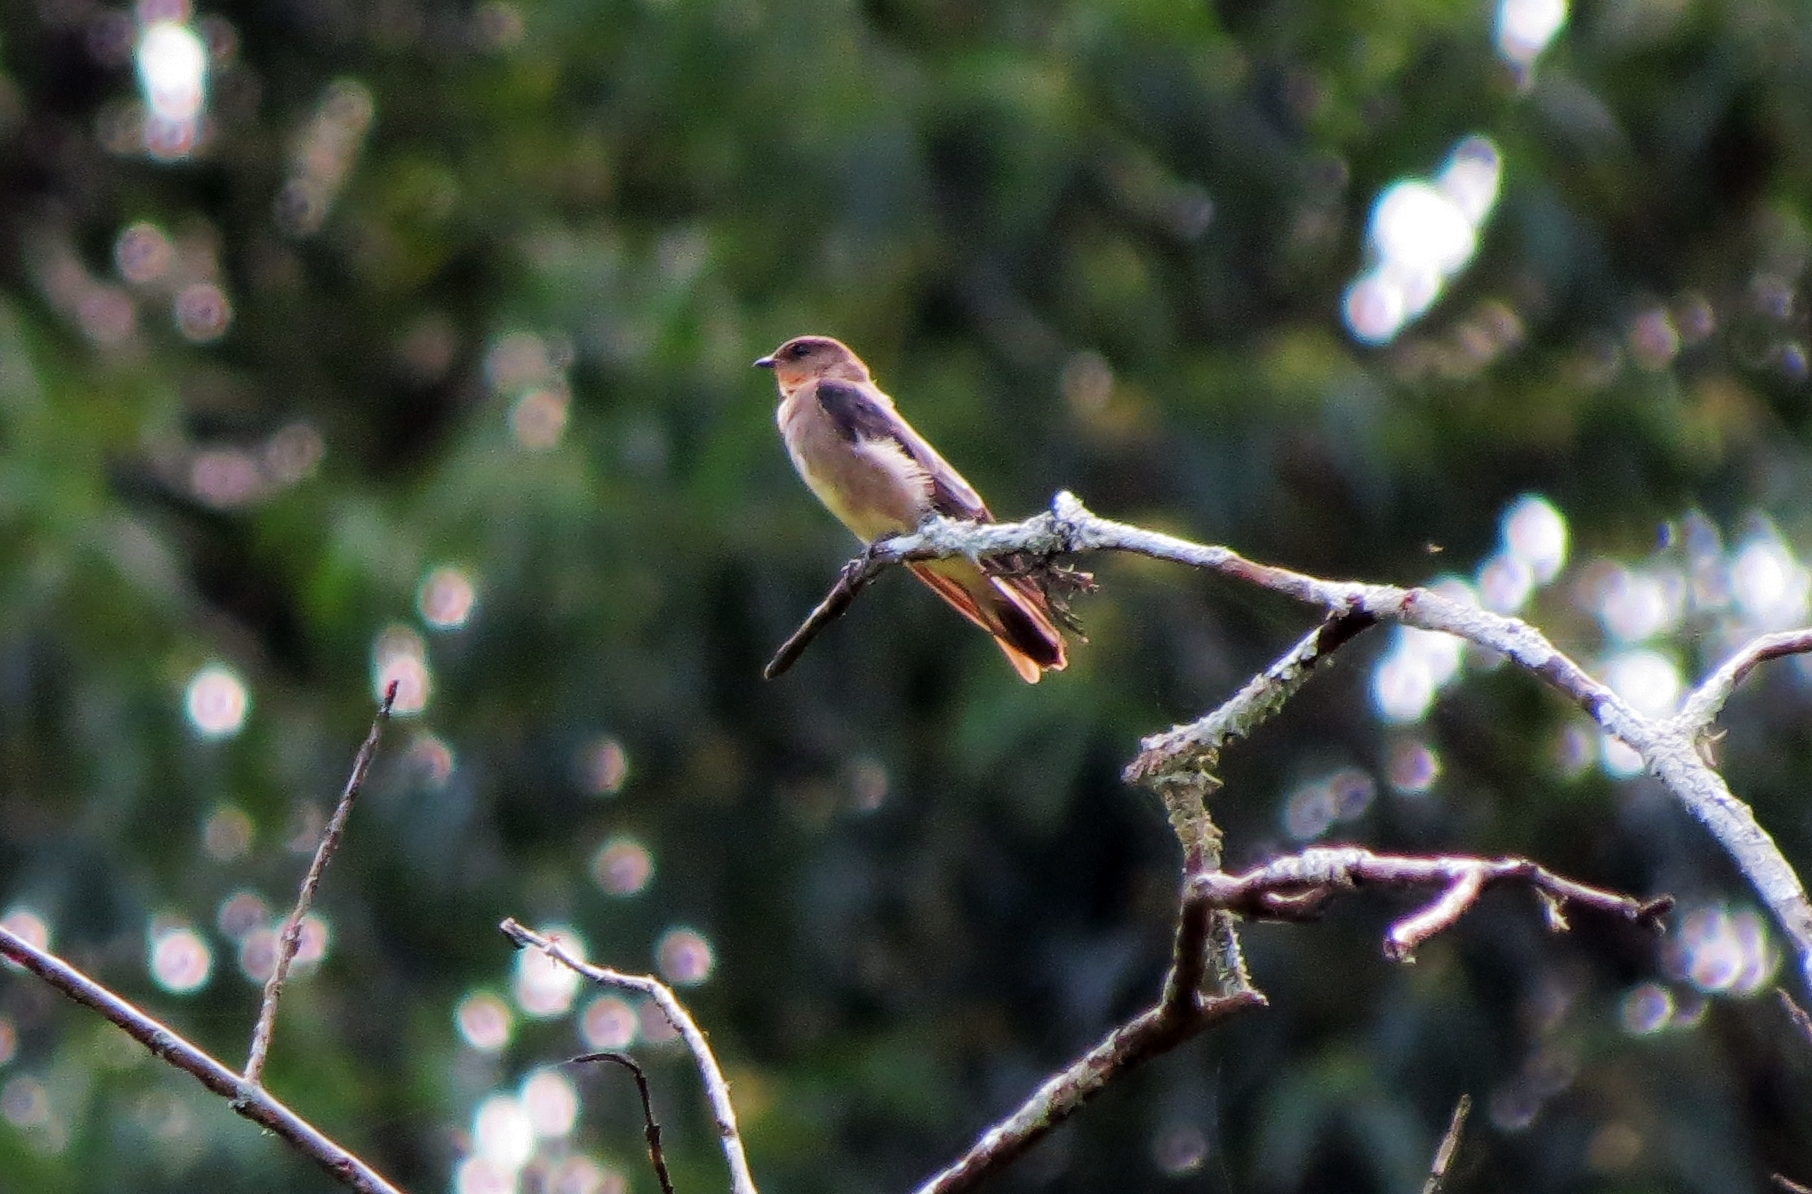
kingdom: Animalia
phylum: Chordata
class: Aves
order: Passeriformes
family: Hirundinidae
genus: Stelgidopteryx
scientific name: Stelgidopteryx ruficollis
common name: Southern rough-winged swallow
